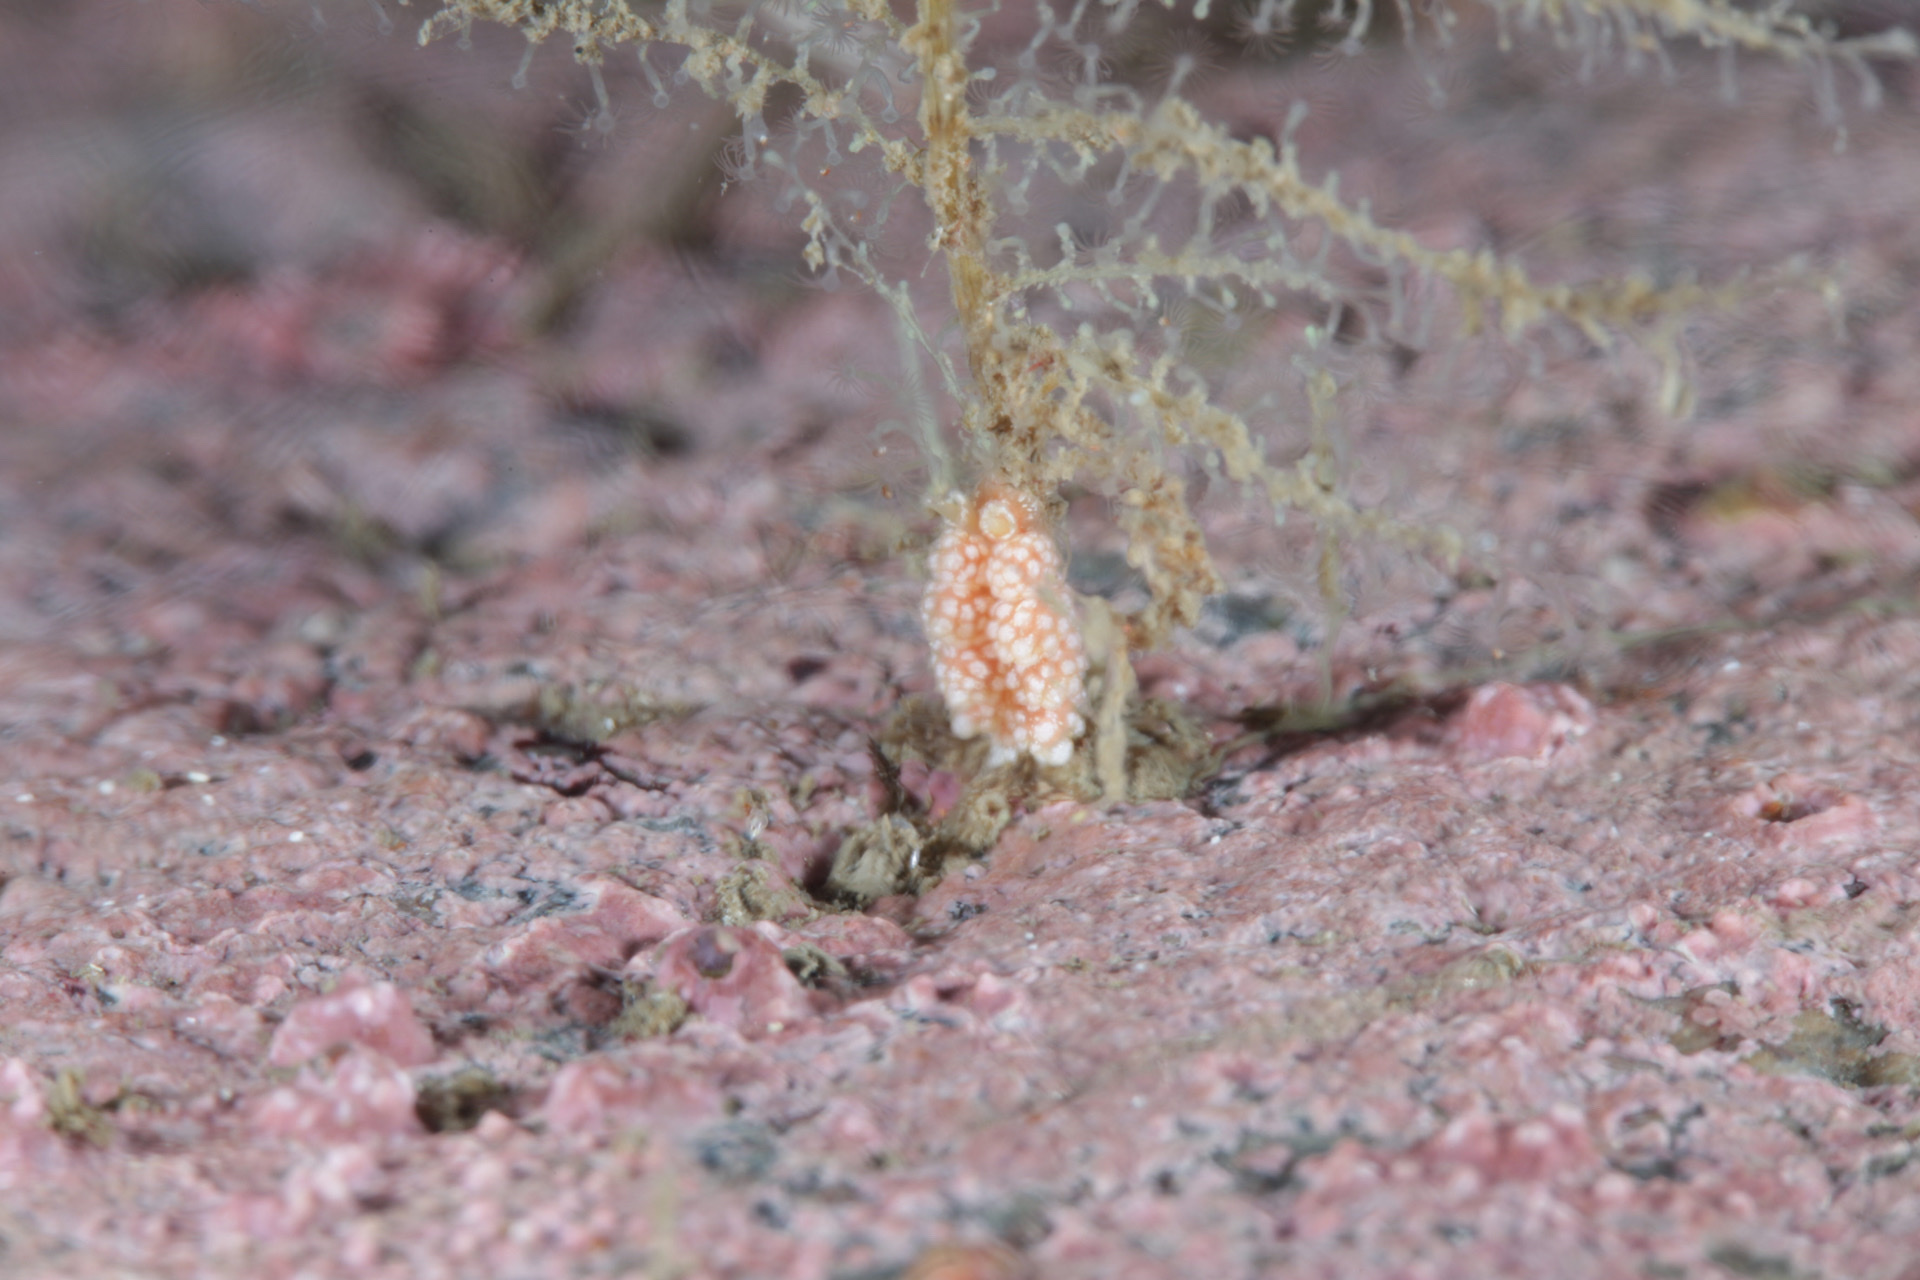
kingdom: Animalia
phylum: Mollusca
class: Gastropoda
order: Nudibranchia
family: Dotidae
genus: Doto
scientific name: Doto fragilis
